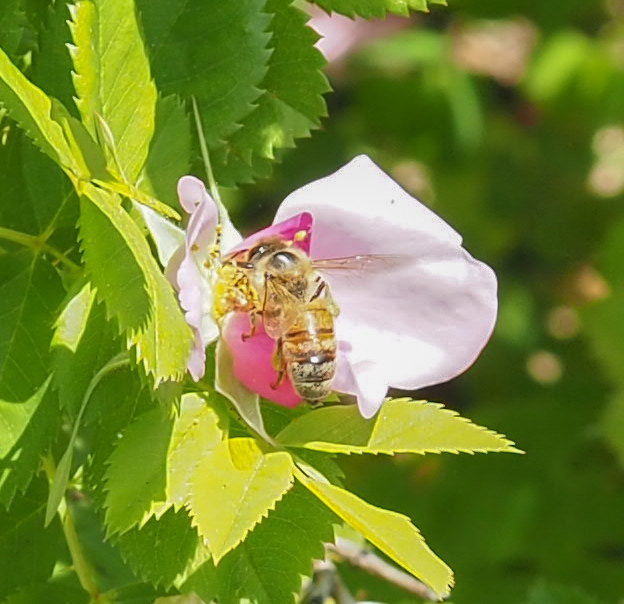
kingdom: Animalia
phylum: Arthropoda
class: Insecta
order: Hymenoptera
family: Apidae
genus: Apis
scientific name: Apis mellifera
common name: Honey bee
